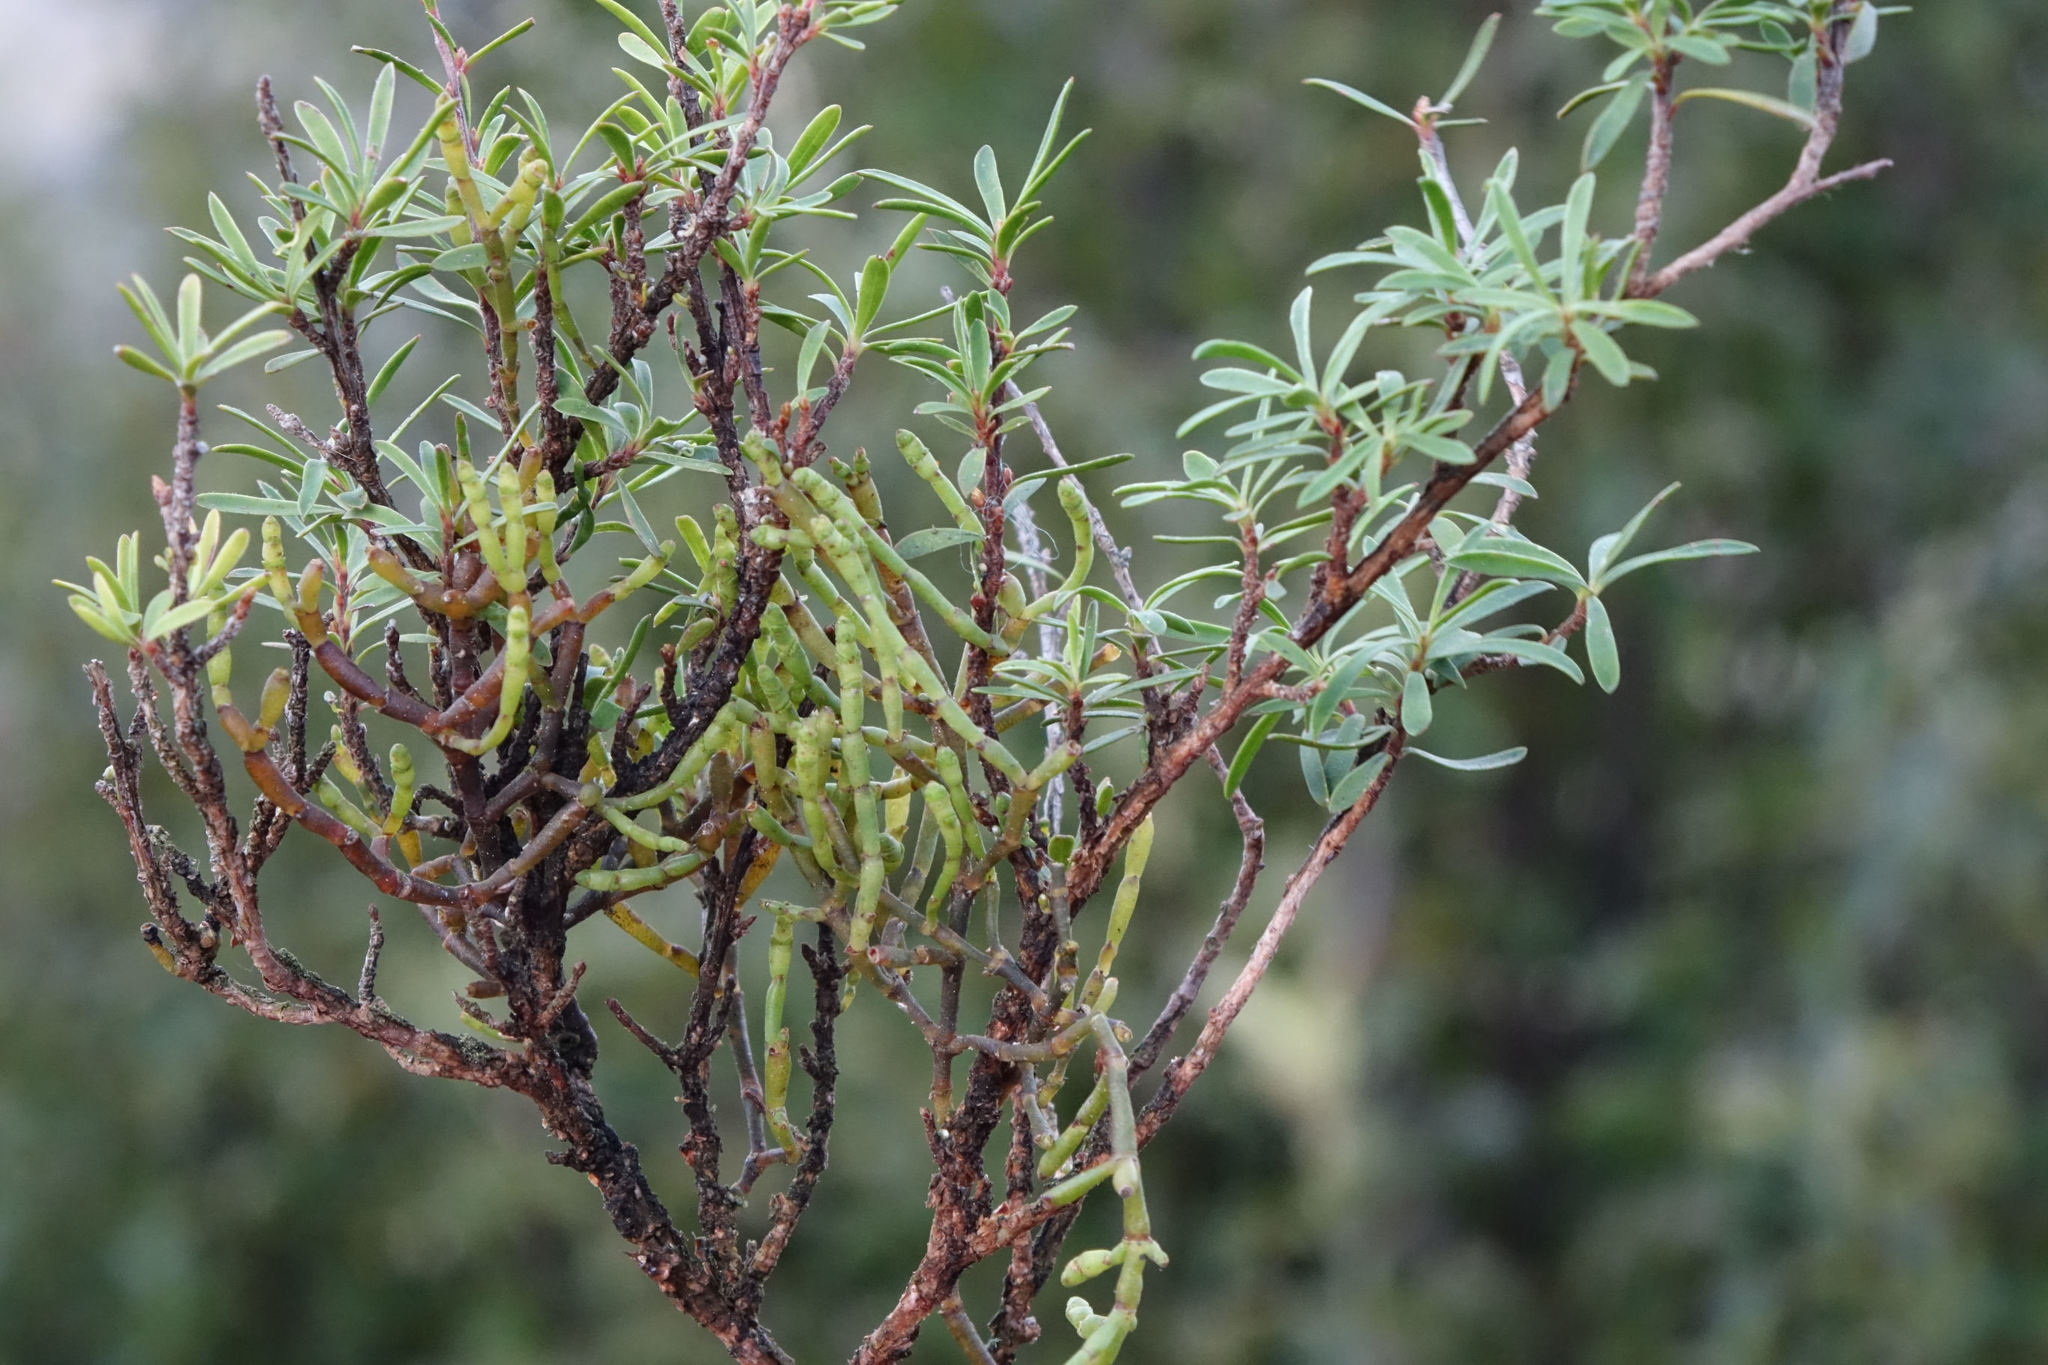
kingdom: Plantae
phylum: Tracheophyta
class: Magnoliopsida
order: Santalales
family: Viscaceae
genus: Korthalsella
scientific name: Korthalsella salicornioides
